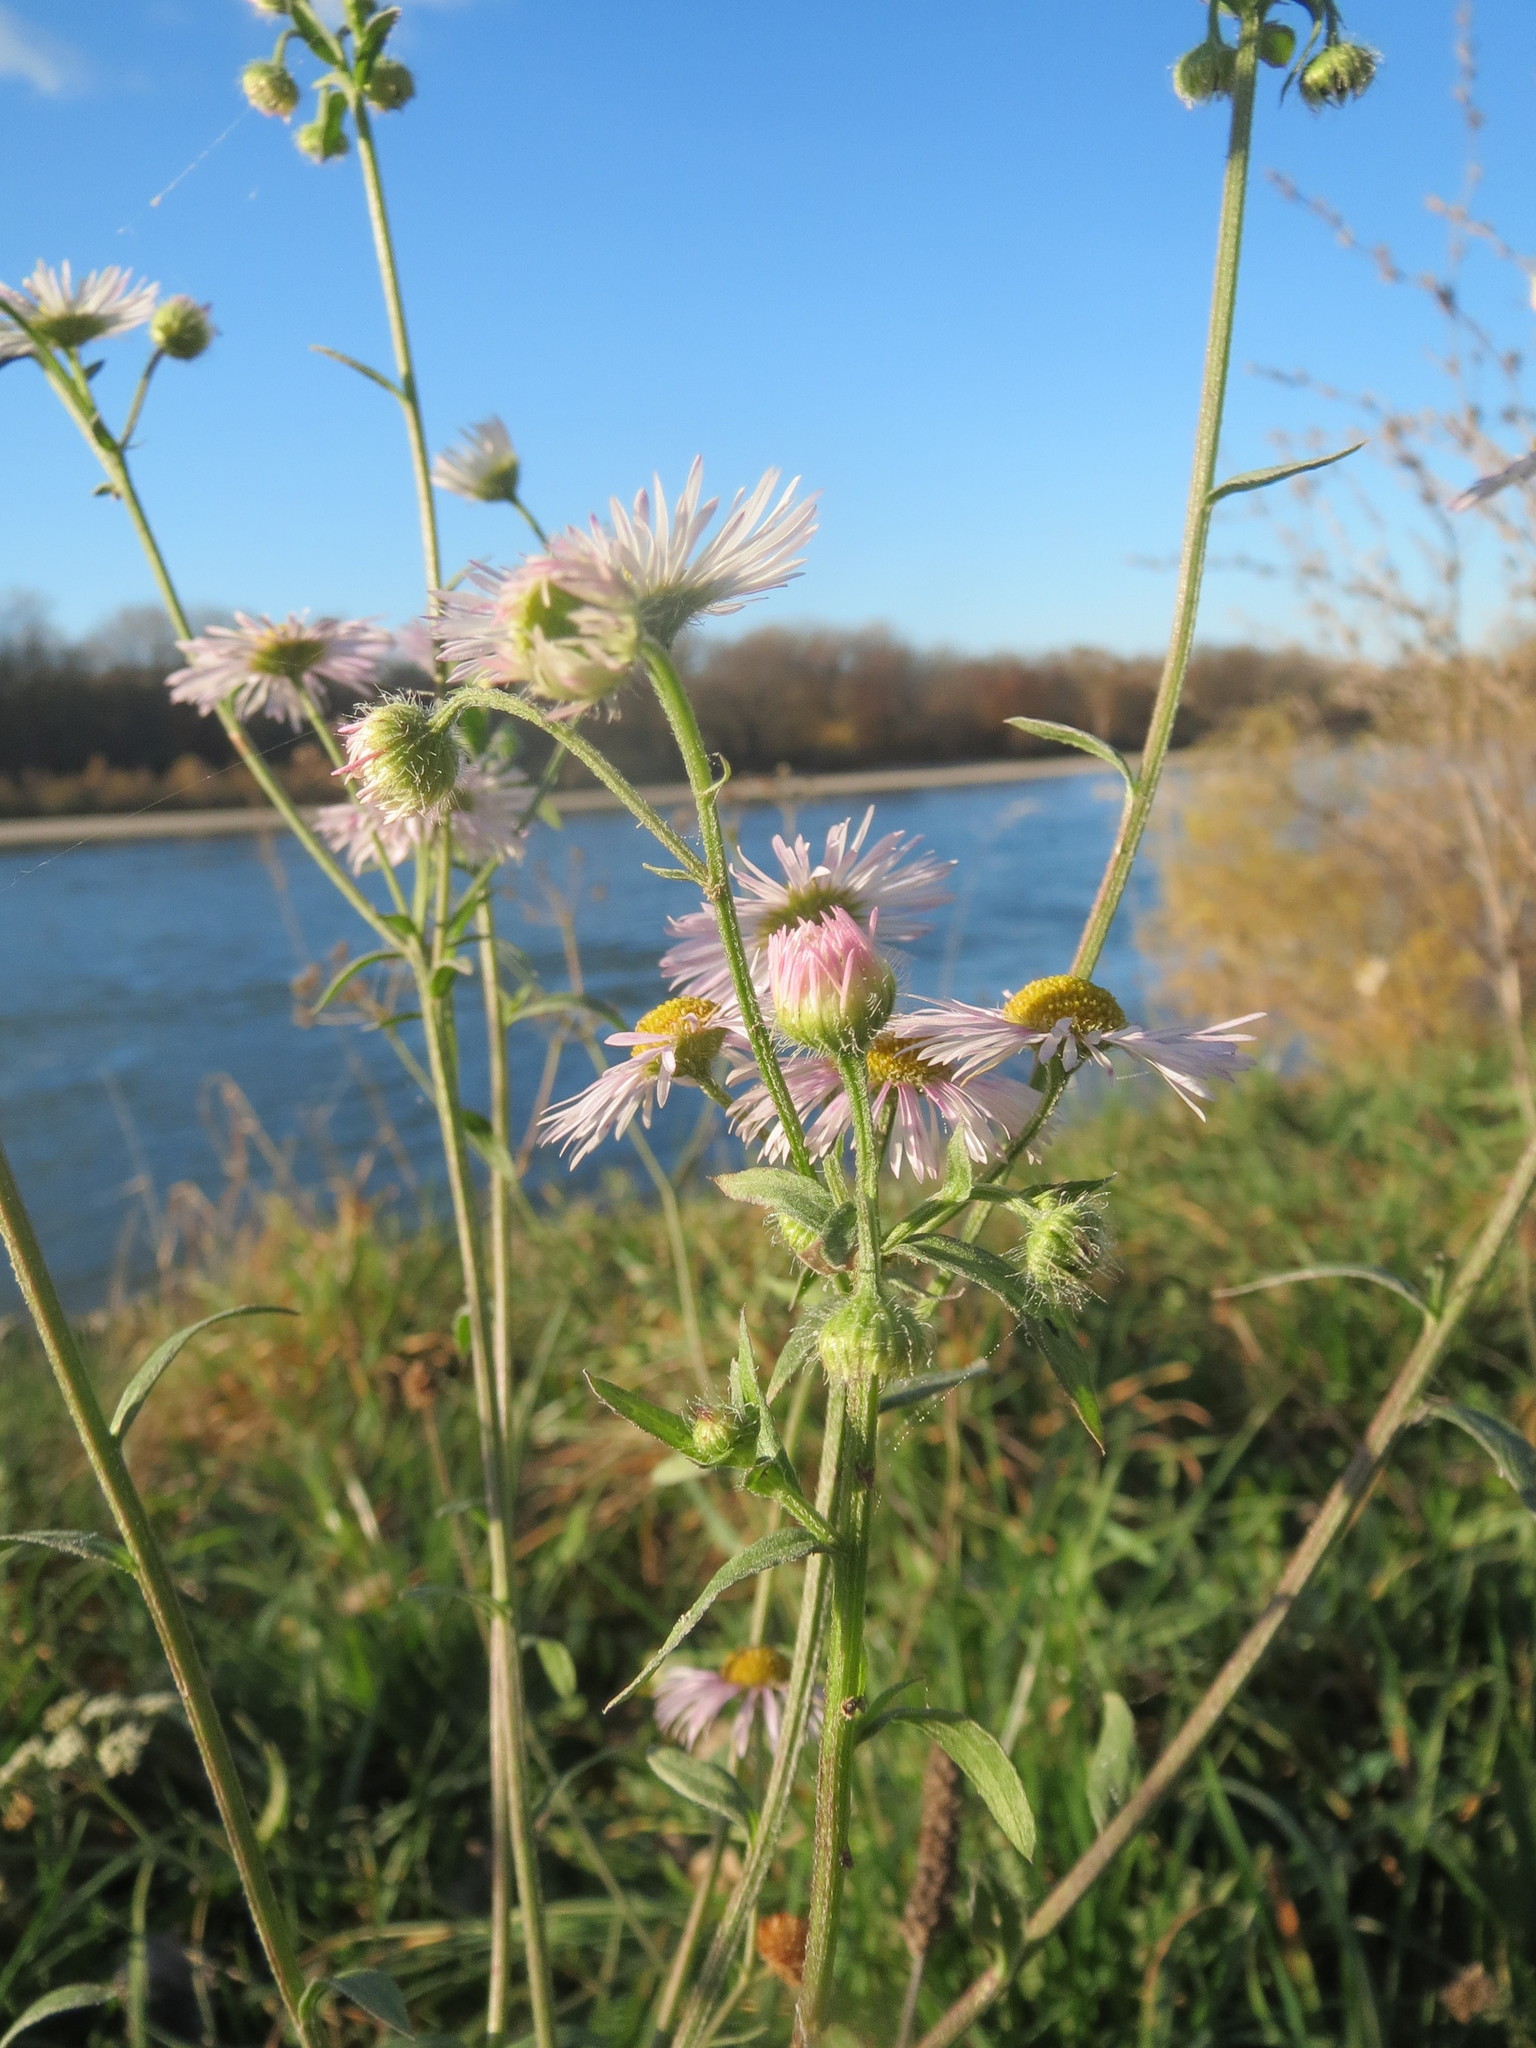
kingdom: Plantae
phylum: Tracheophyta
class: Magnoliopsida
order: Asterales
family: Asteraceae
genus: Erigeron
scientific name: Erigeron annuus
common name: Tall fleabane
